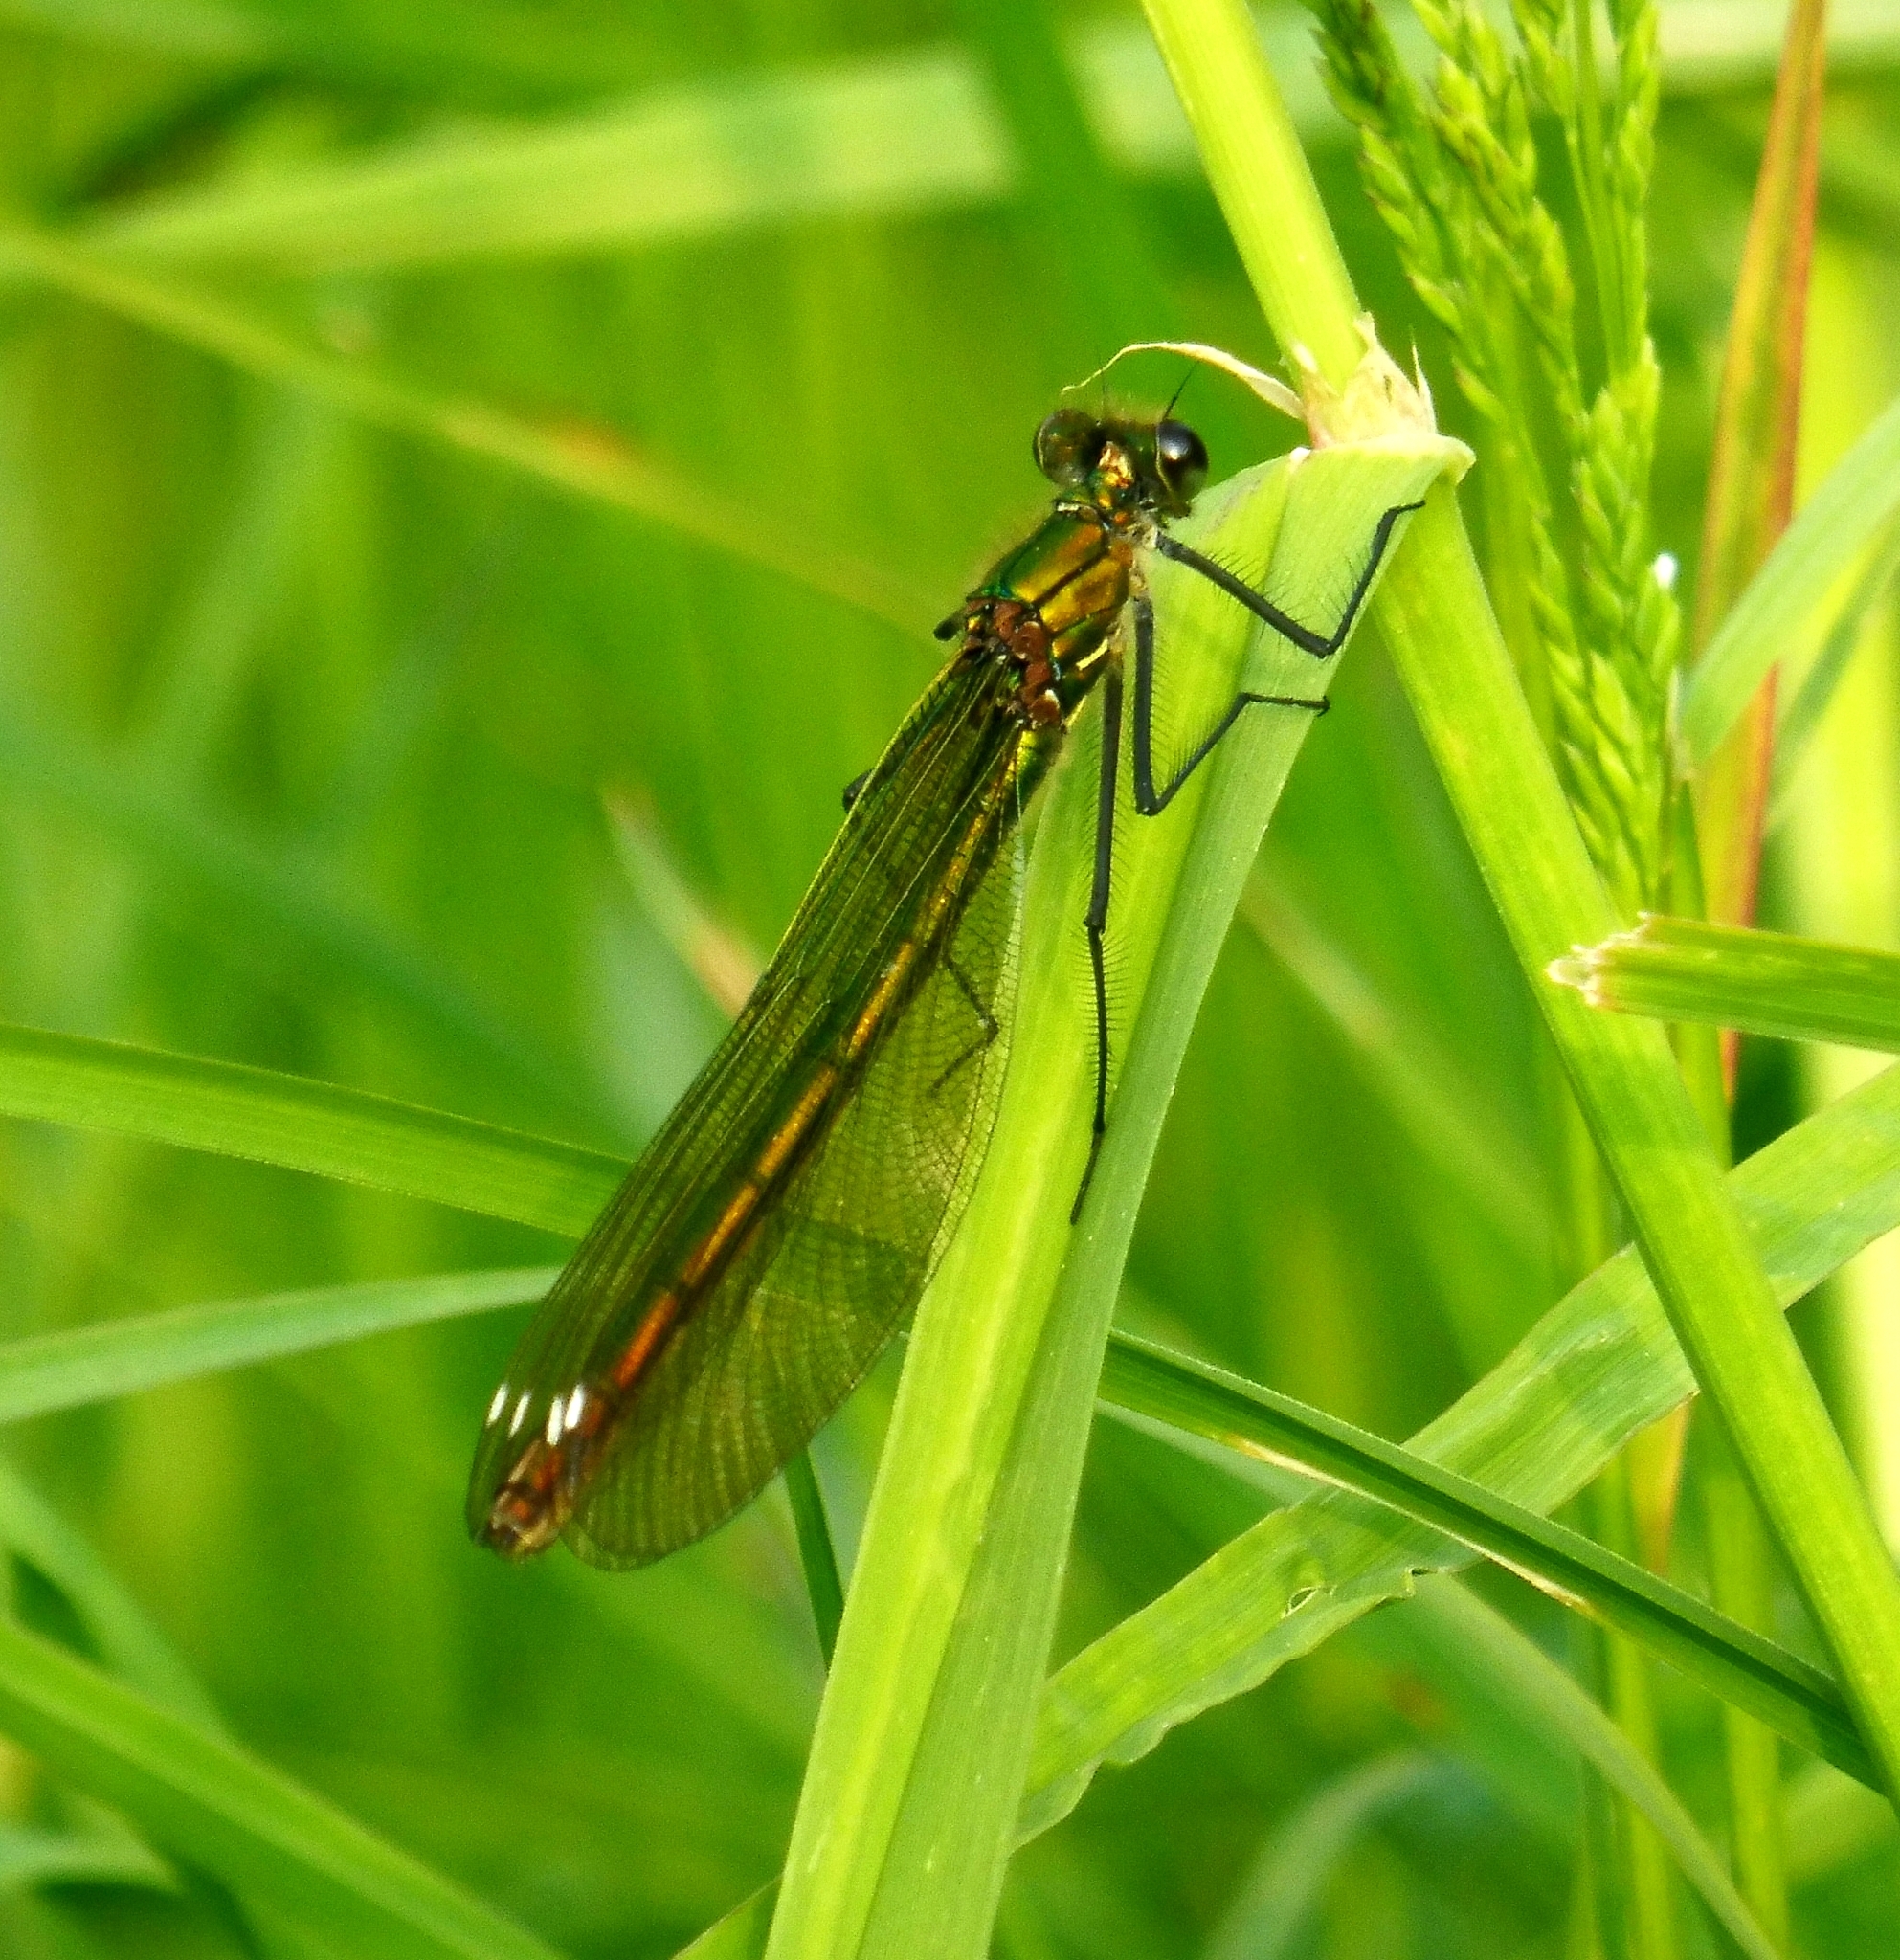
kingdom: Animalia
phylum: Arthropoda
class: Insecta
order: Odonata
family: Calopterygidae
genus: Calopteryx
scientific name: Calopteryx splendens
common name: Banded demoiselle
